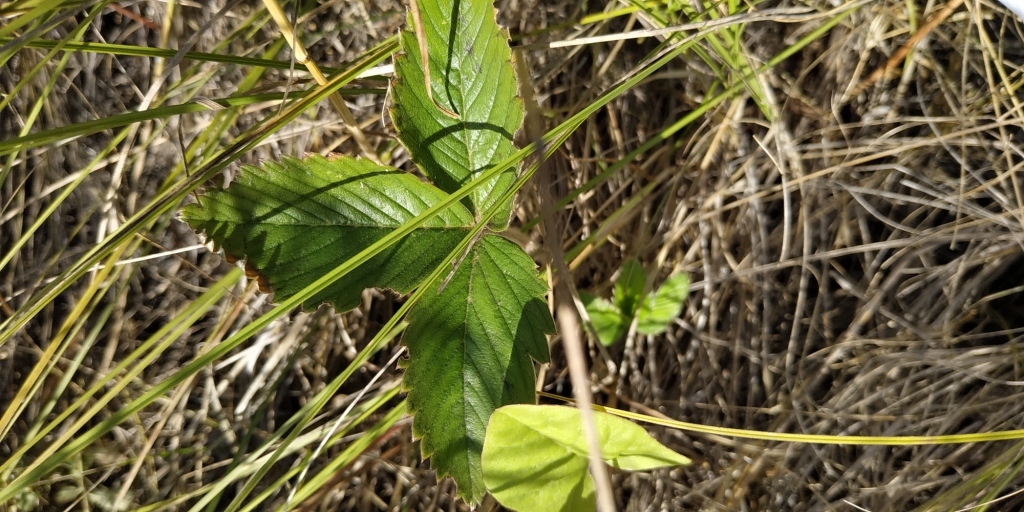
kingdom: Plantae
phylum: Tracheophyta
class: Magnoliopsida
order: Rosales
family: Rosaceae
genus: Fragaria
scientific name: Fragaria viridis
